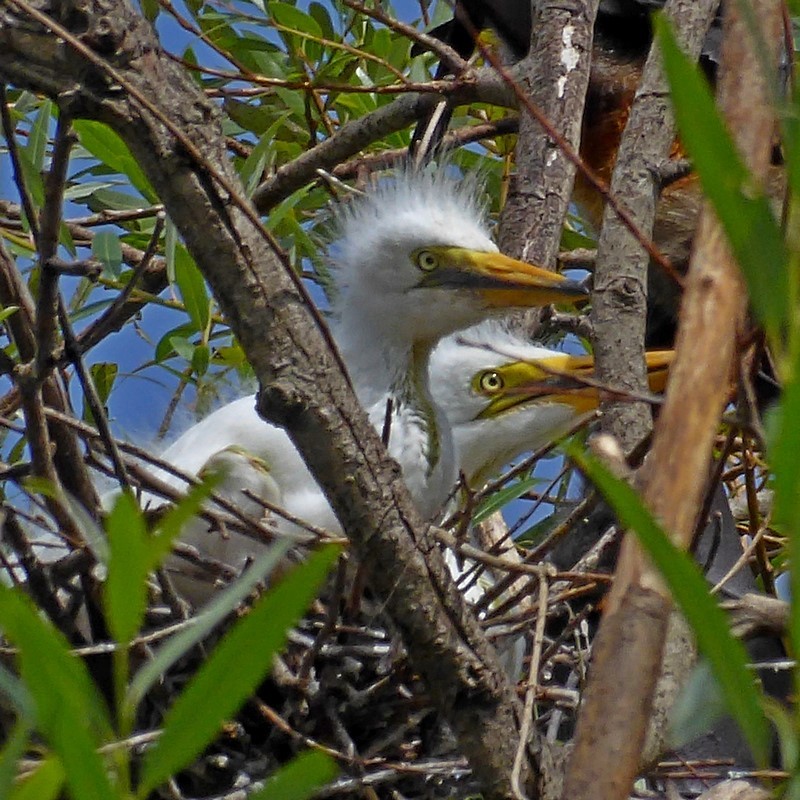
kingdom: Animalia
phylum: Chordata
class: Aves
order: Pelecaniformes
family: Ardeidae
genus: Ardea
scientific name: Ardea alba
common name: Great egret
